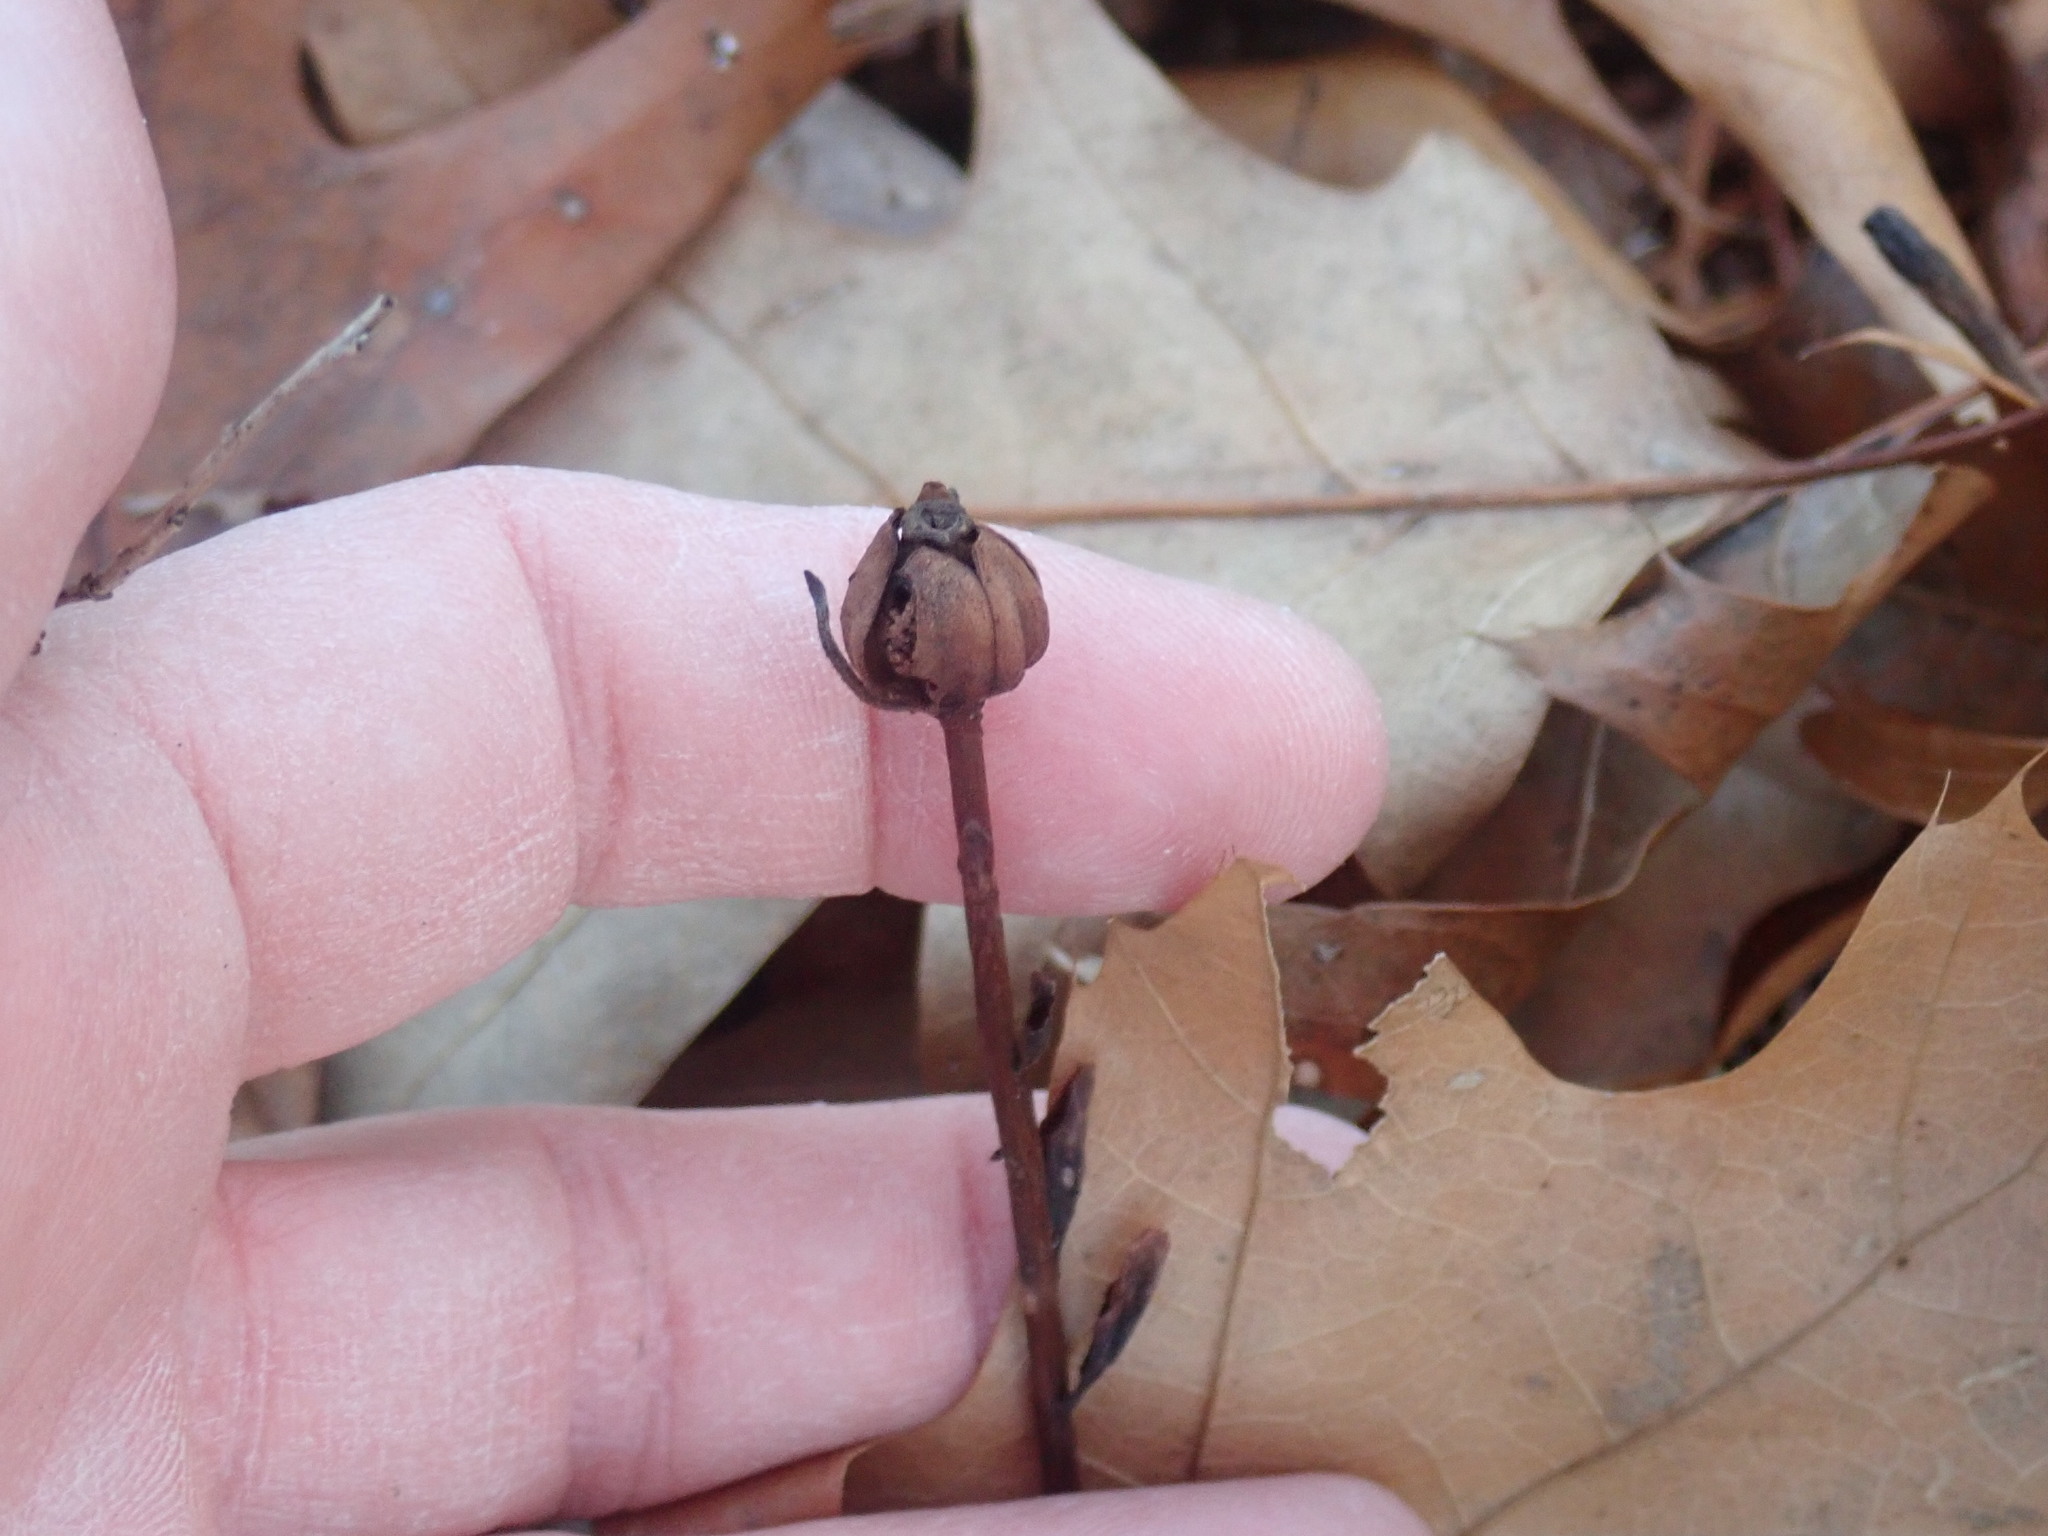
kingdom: Plantae
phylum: Tracheophyta
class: Magnoliopsida
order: Ericales
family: Ericaceae
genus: Monotropa
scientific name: Monotropa uniflora
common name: Convulsion root
